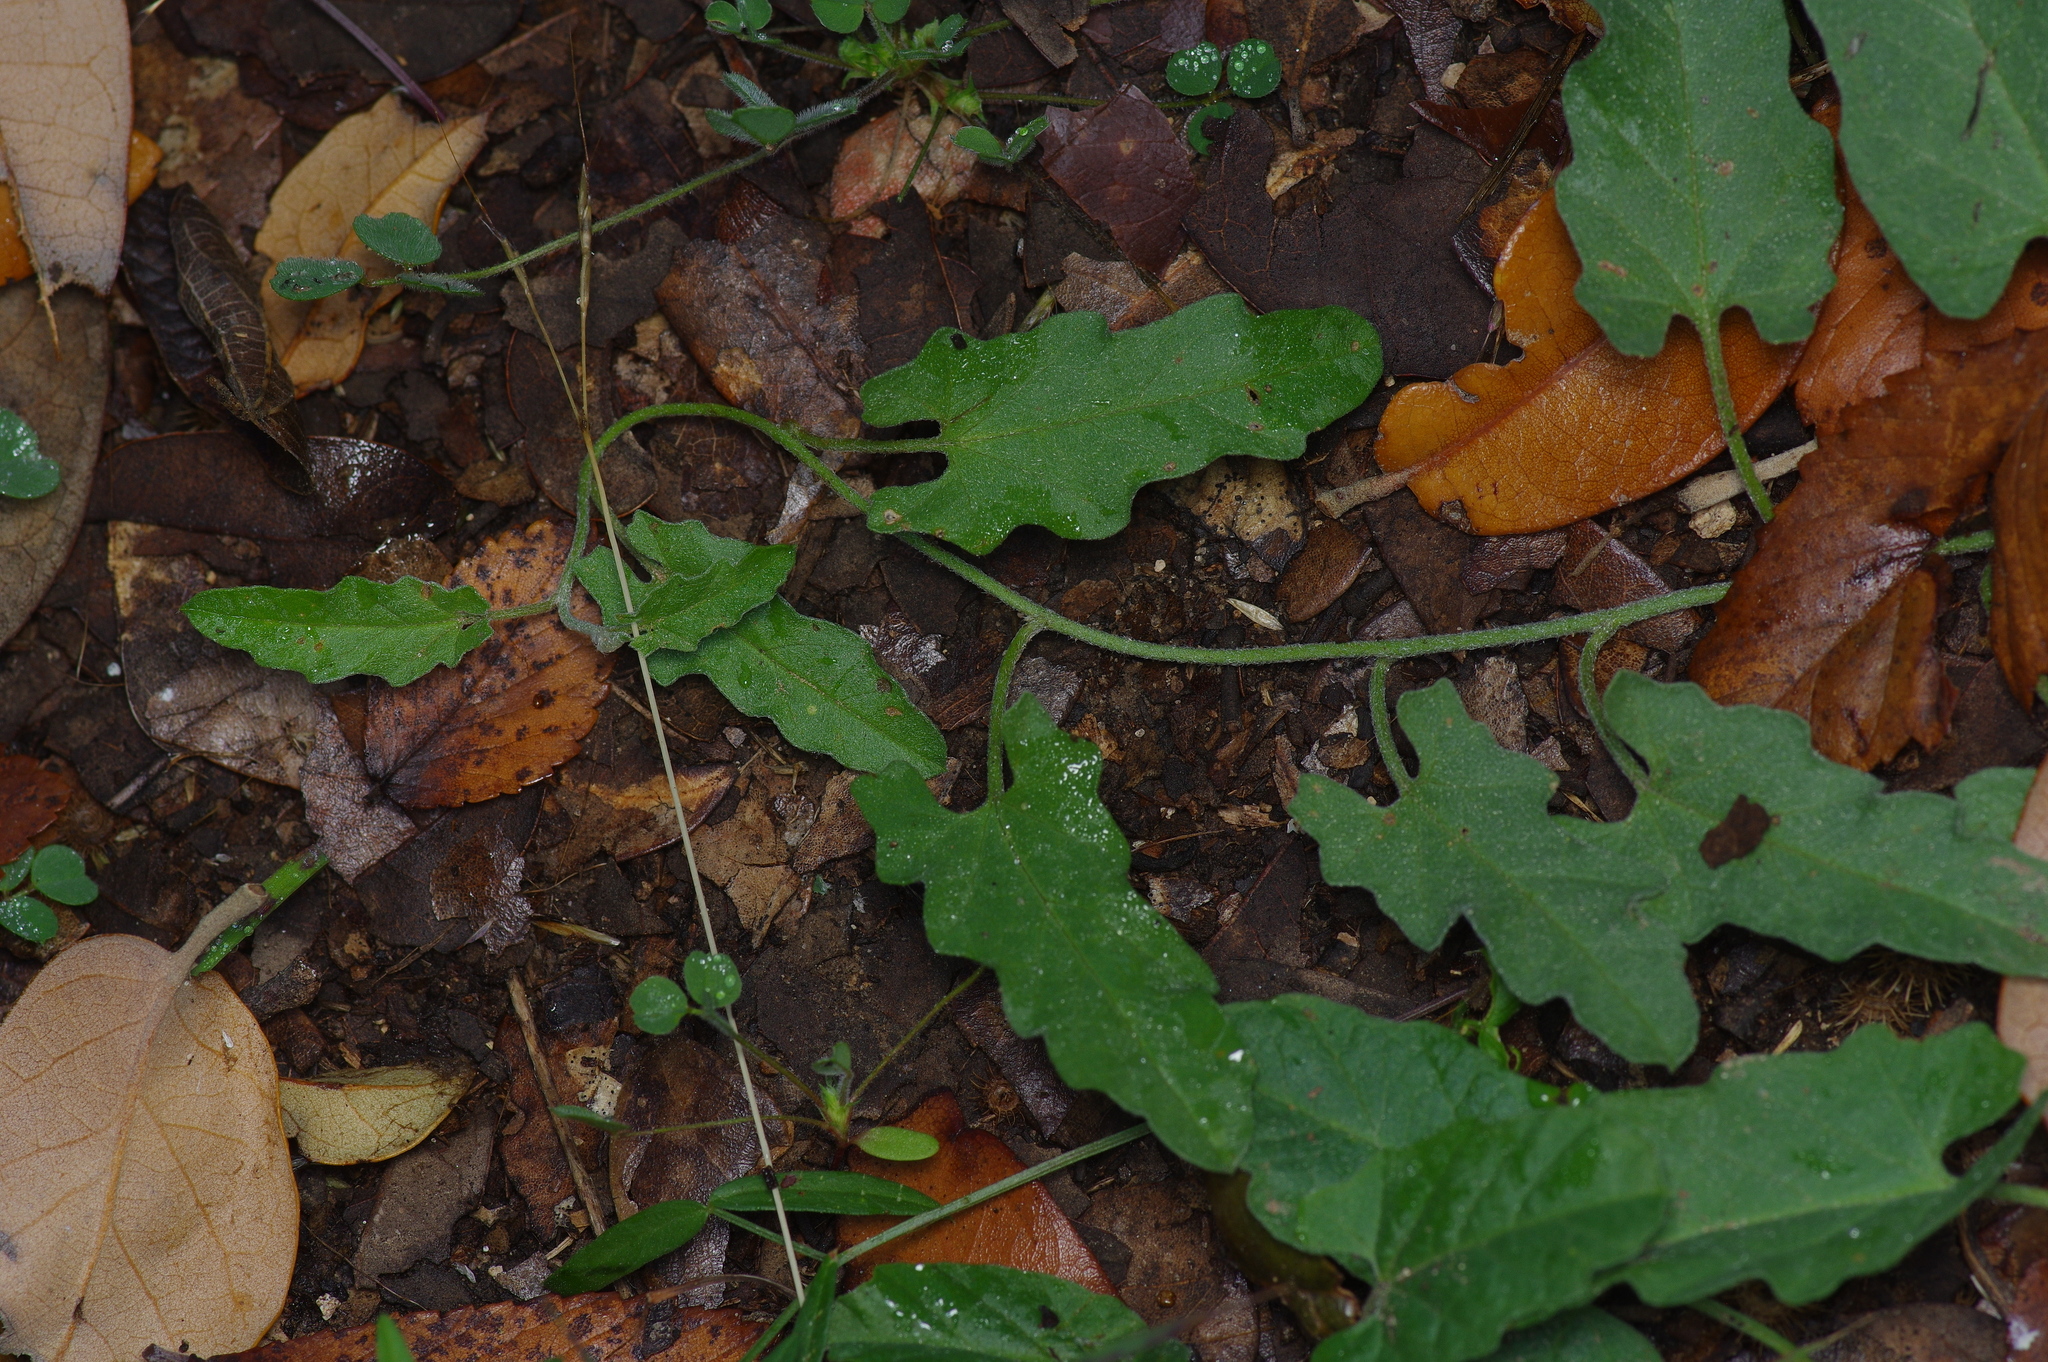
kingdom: Plantae
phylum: Tracheophyta
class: Magnoliopsida
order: Solanales
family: Convolvulaceae
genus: Convolvulus
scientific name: Convolvulus arvensis
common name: Field bindweed
